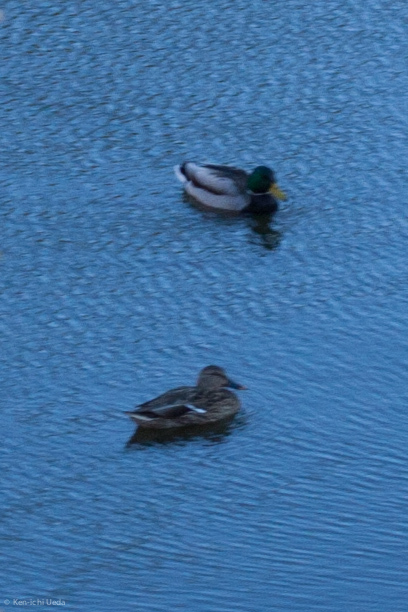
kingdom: Animalia
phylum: Chordata
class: Aves
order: Anseriformes
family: Anatidae
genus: Anas
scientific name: Anas platyrhynchos
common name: Mallard
